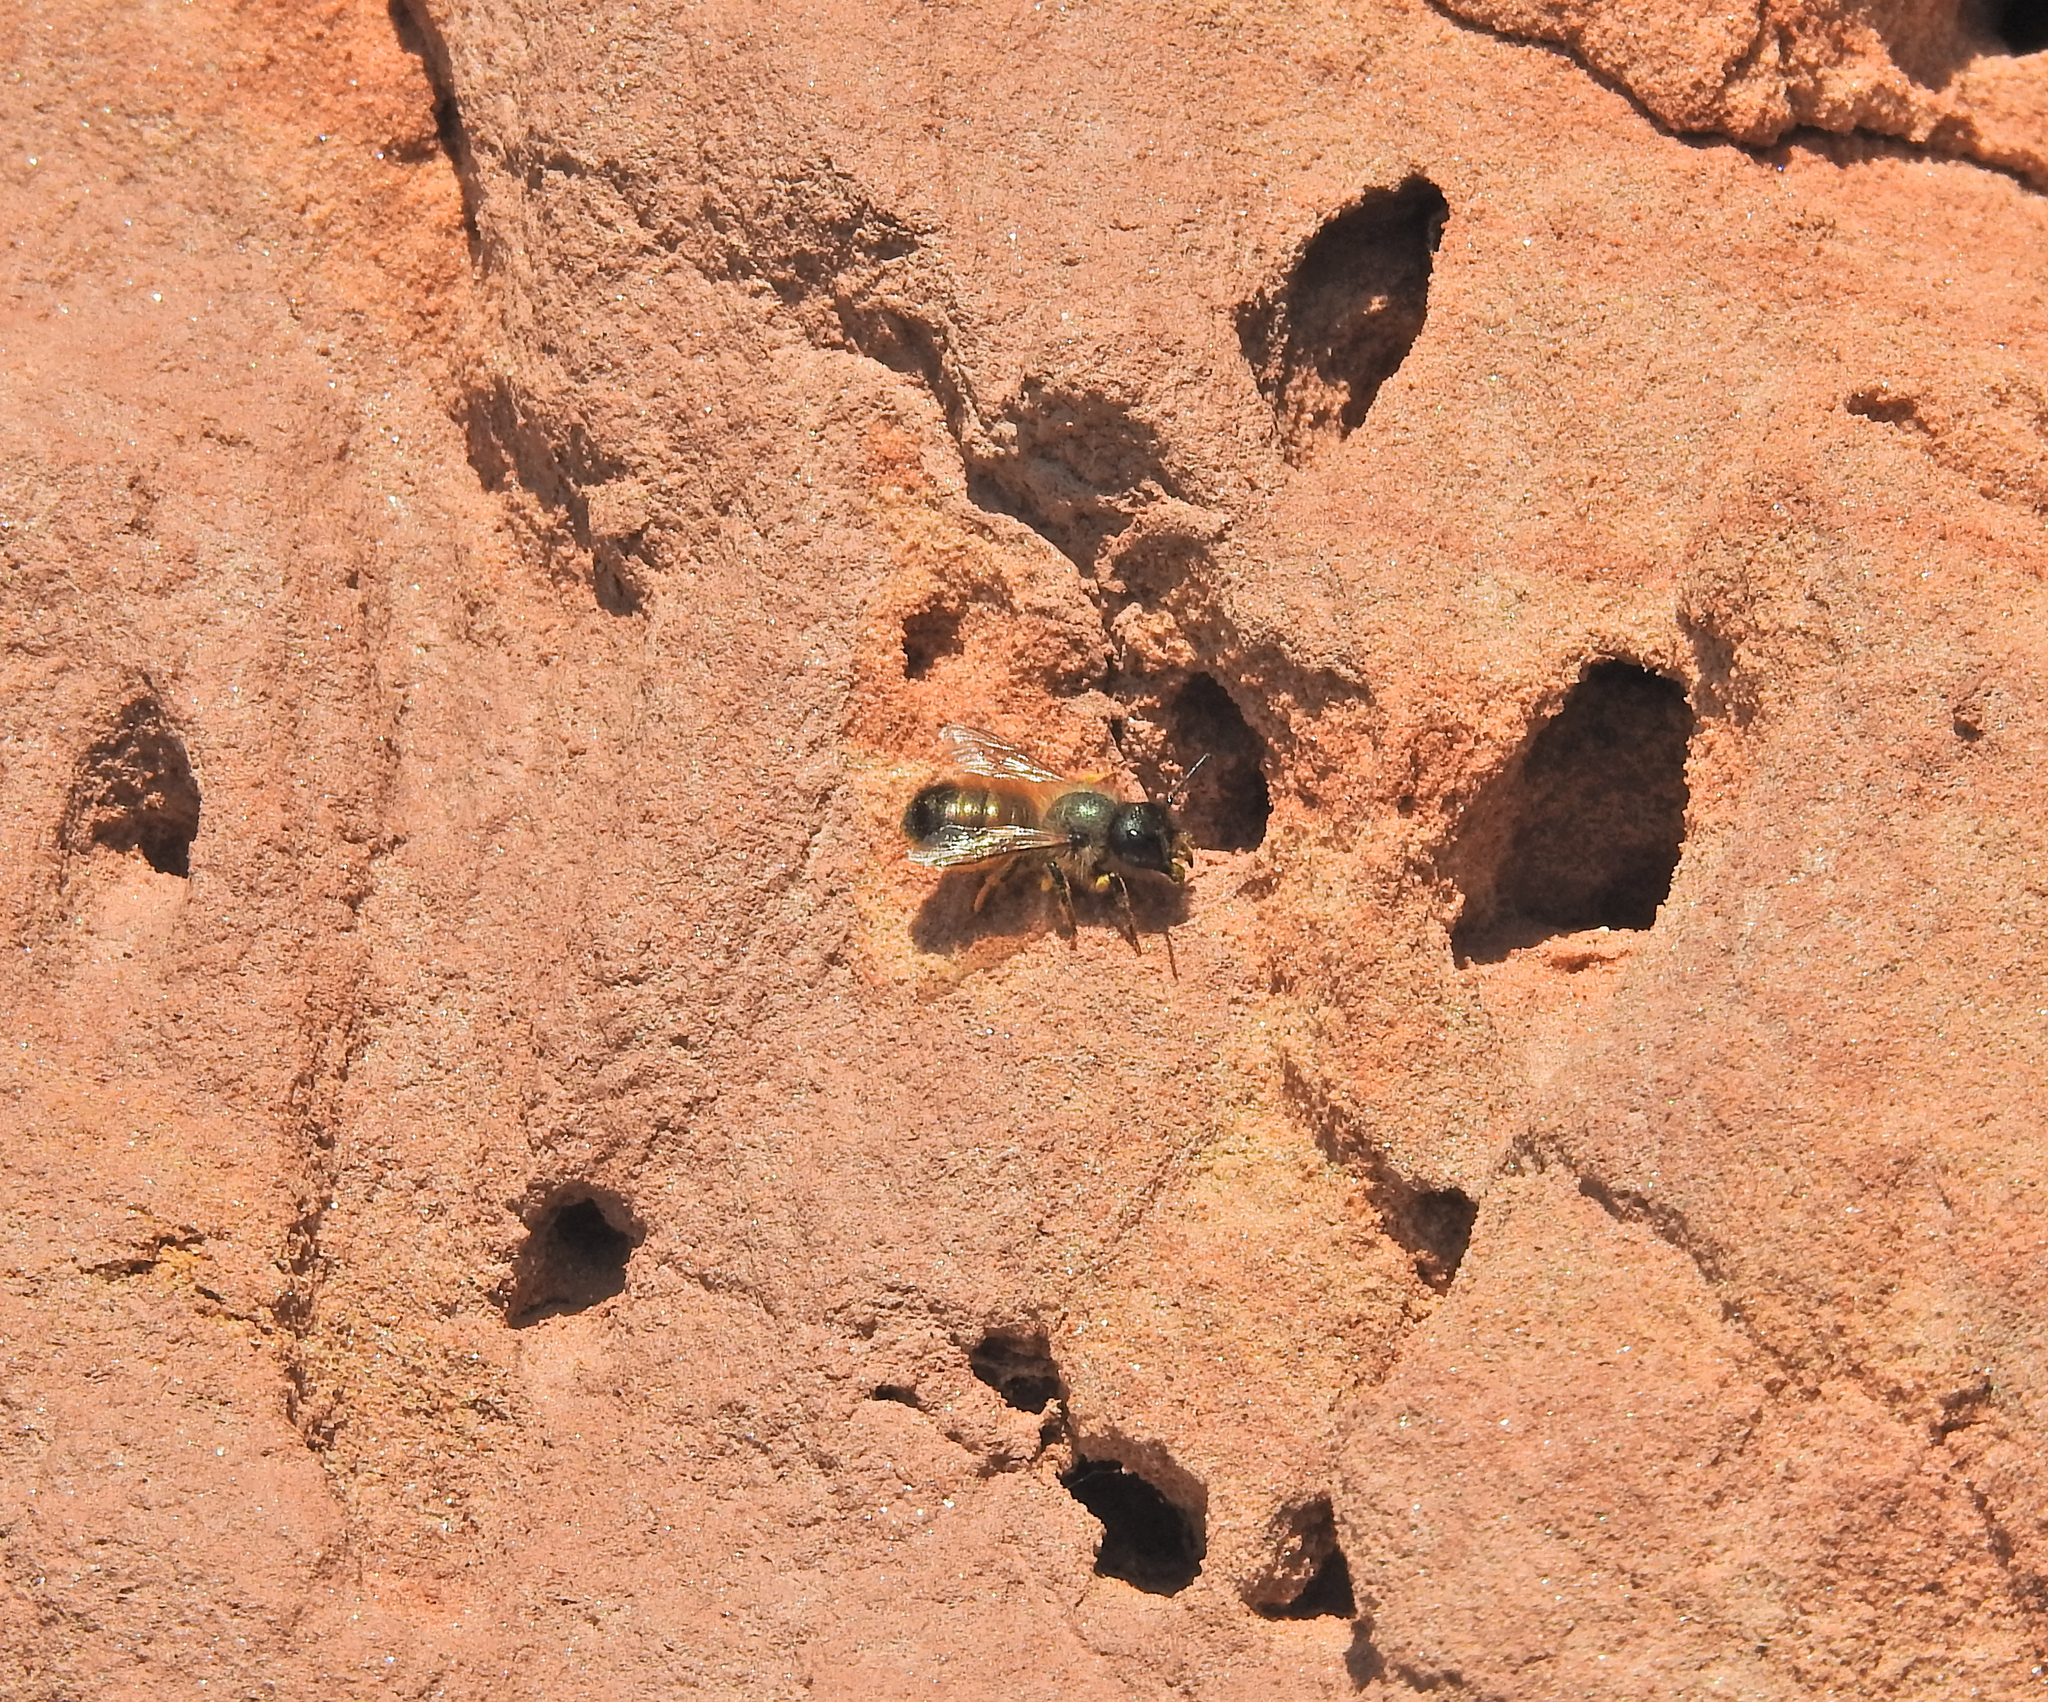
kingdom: Animalia
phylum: Arthropoda
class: Insecta
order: Hymenoptera
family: Megachilidae
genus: Osmia
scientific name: Osmia bicornis
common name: Red mason bee
